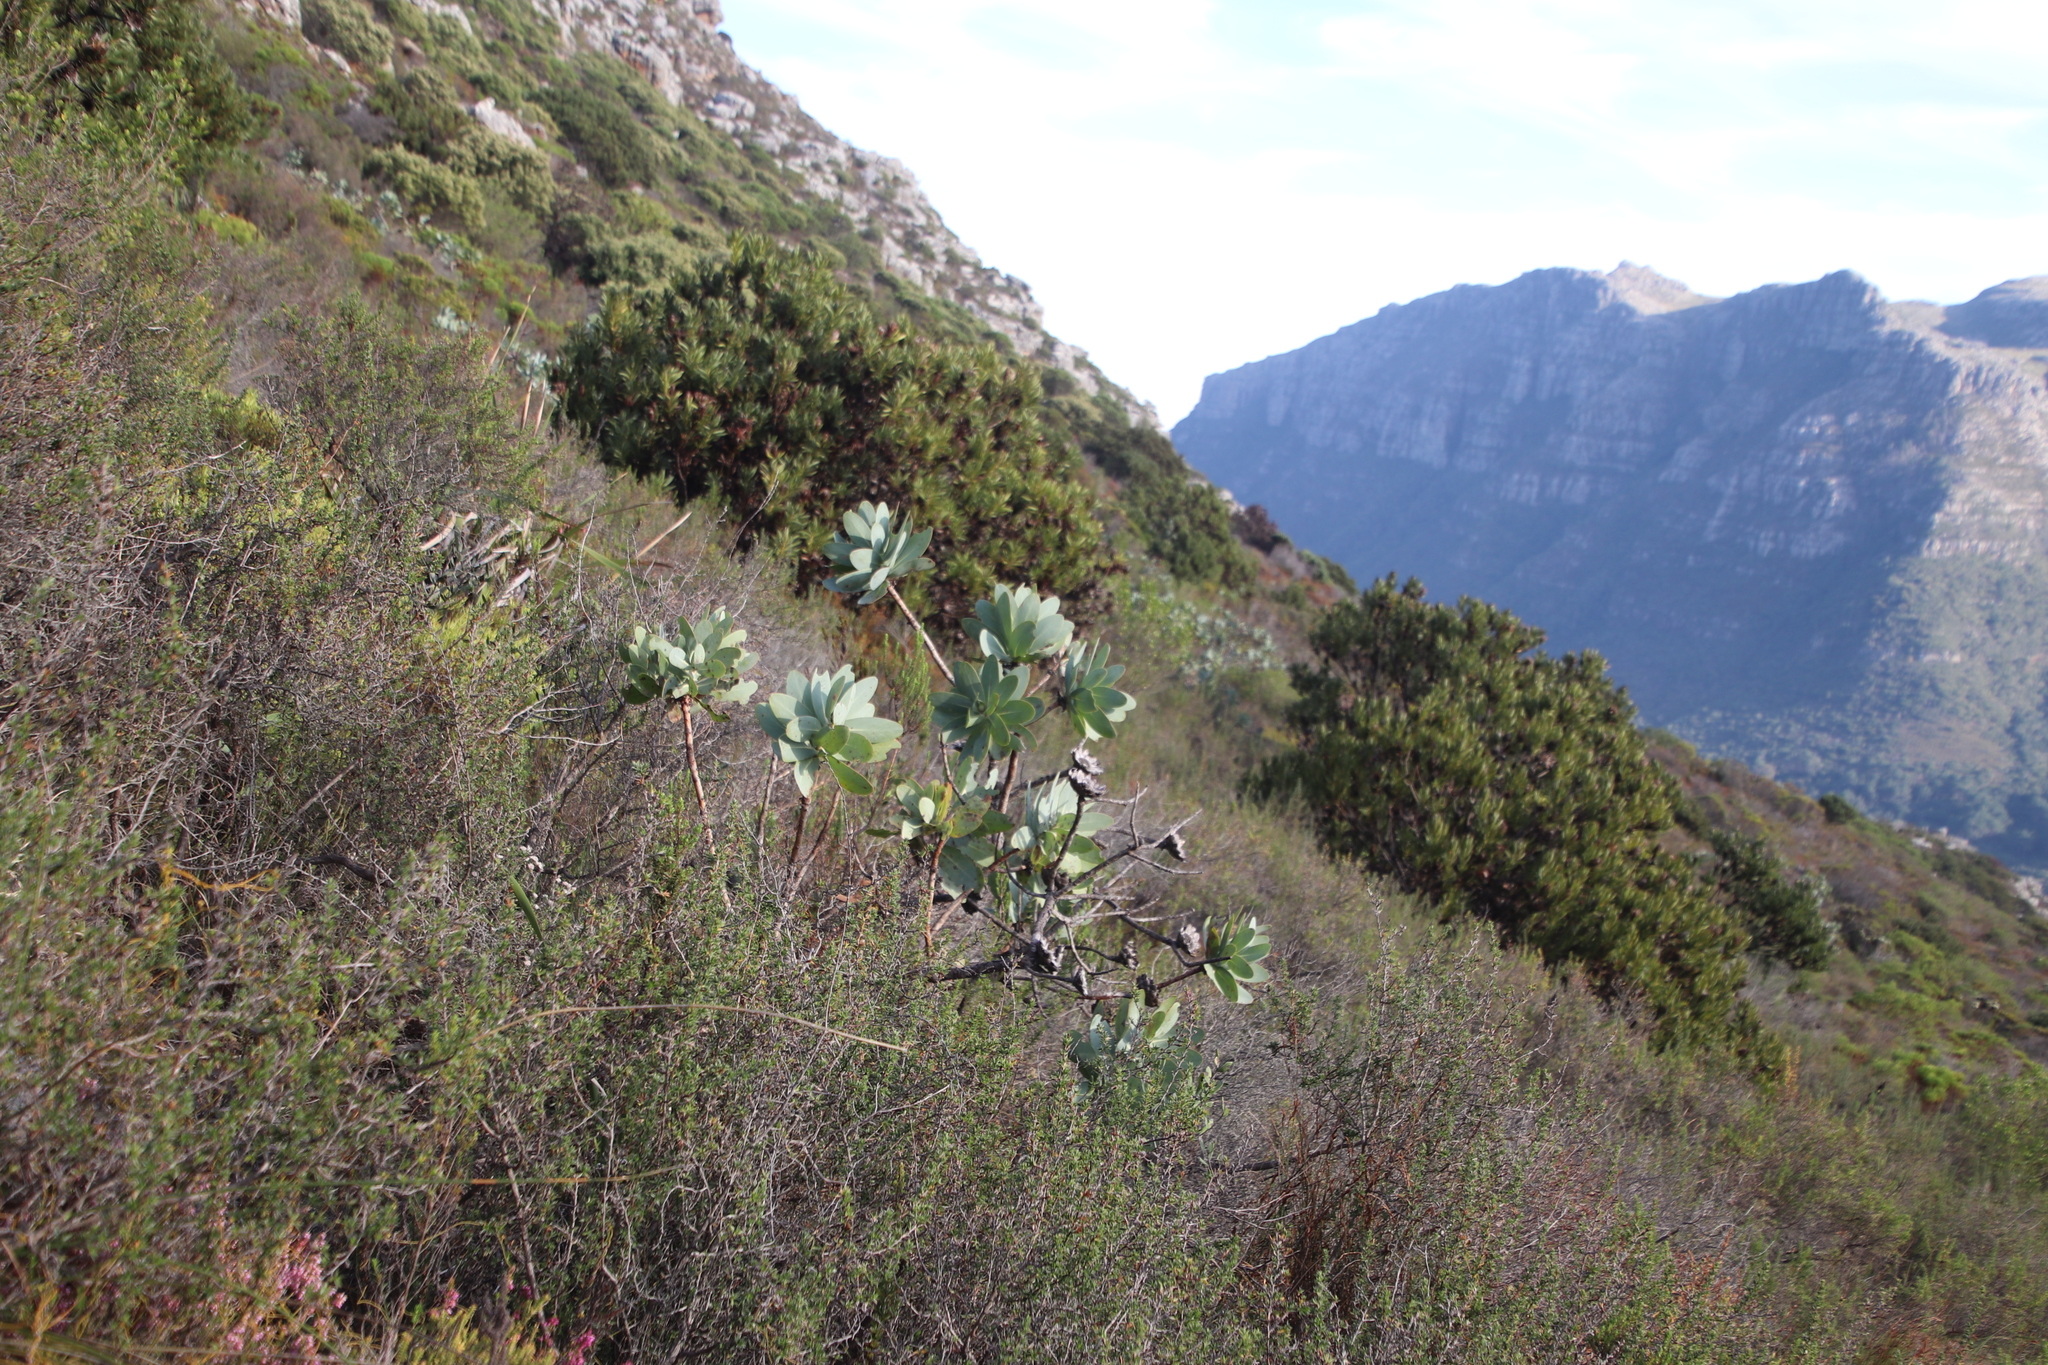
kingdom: Plantae
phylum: Tracheophyta
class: Magnoliopsida
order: Proteales
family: Proteaceae
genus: Protea
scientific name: Protea nitida
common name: Tree protea
